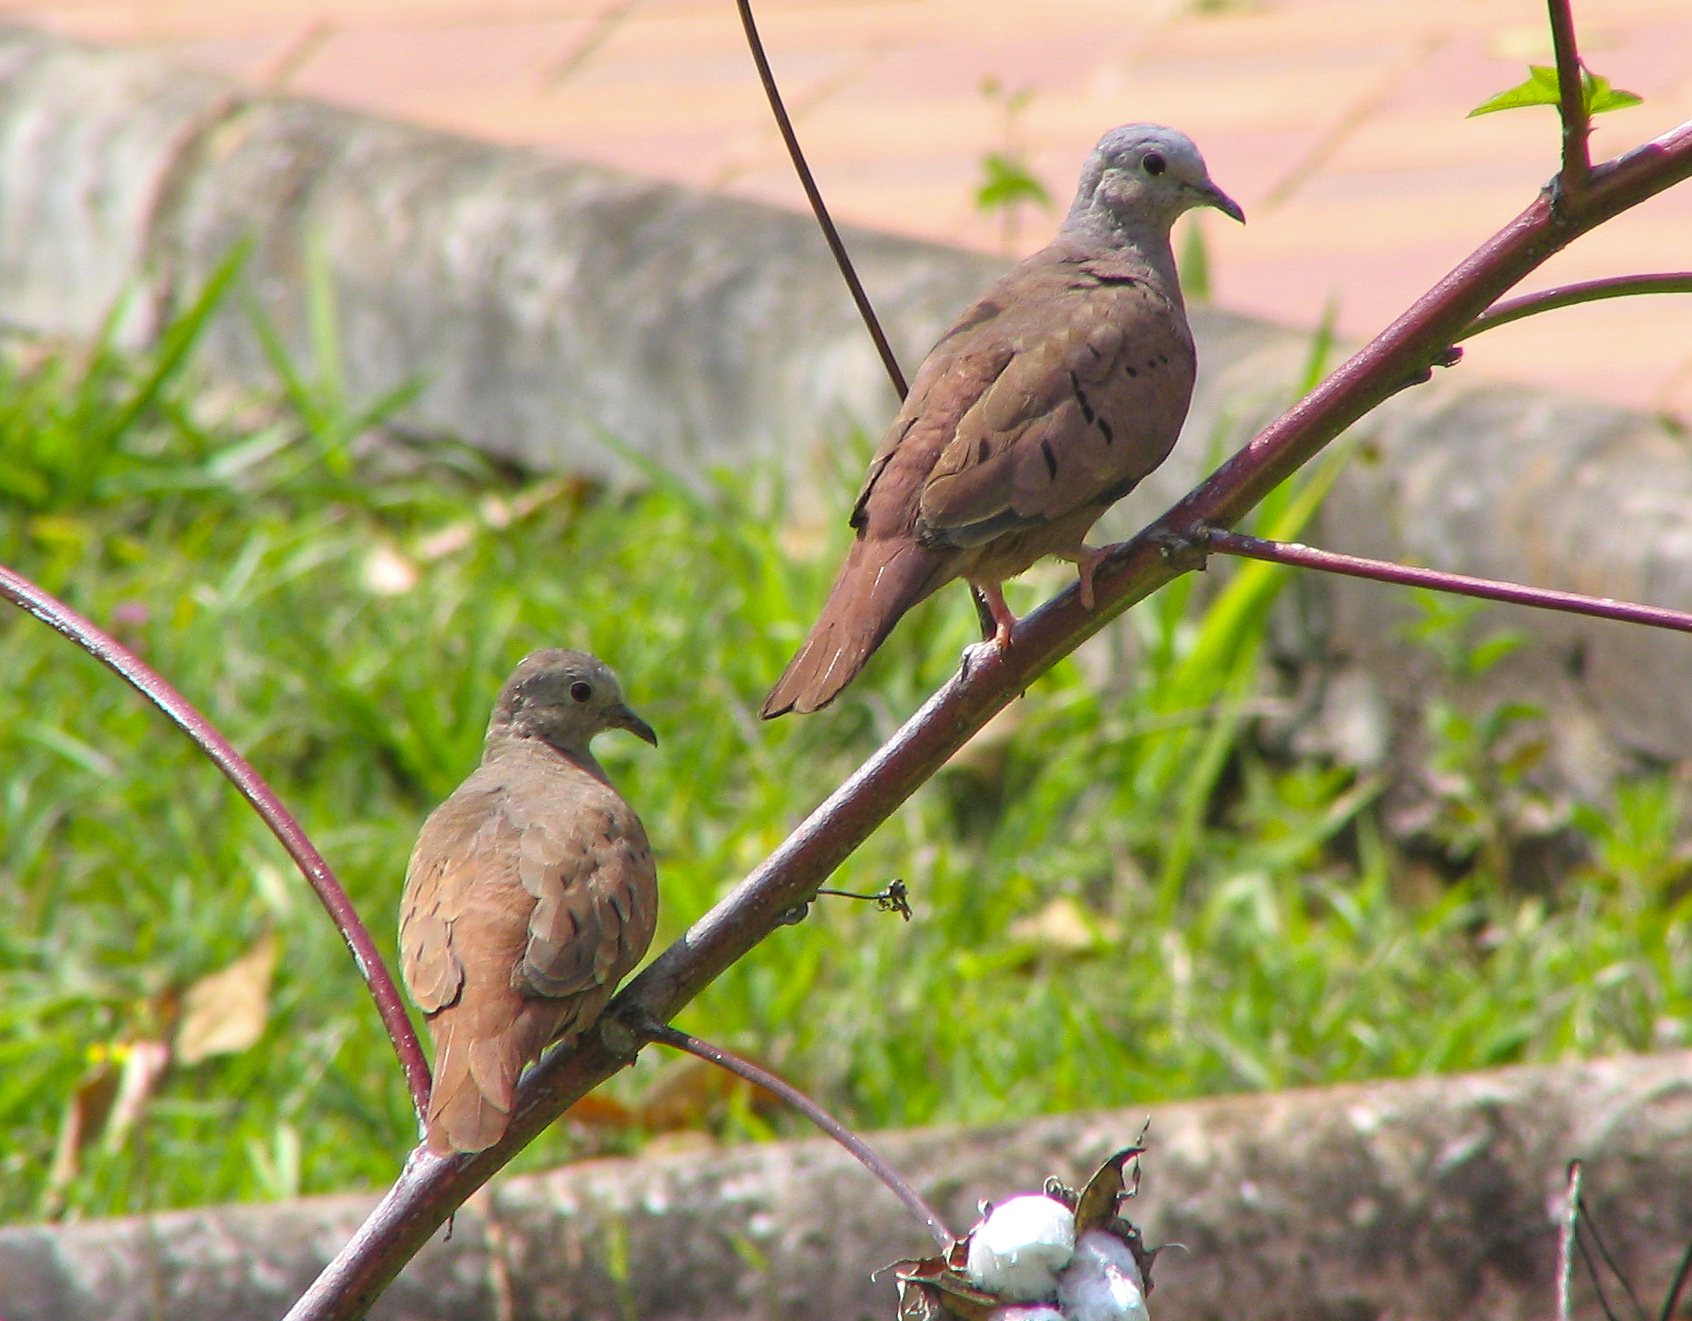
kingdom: Animalia
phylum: Chordata
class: Aves
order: Columbiformes
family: Columbidae
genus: Columbina
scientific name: Columbina talpacoti
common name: Ruddy ground dove
